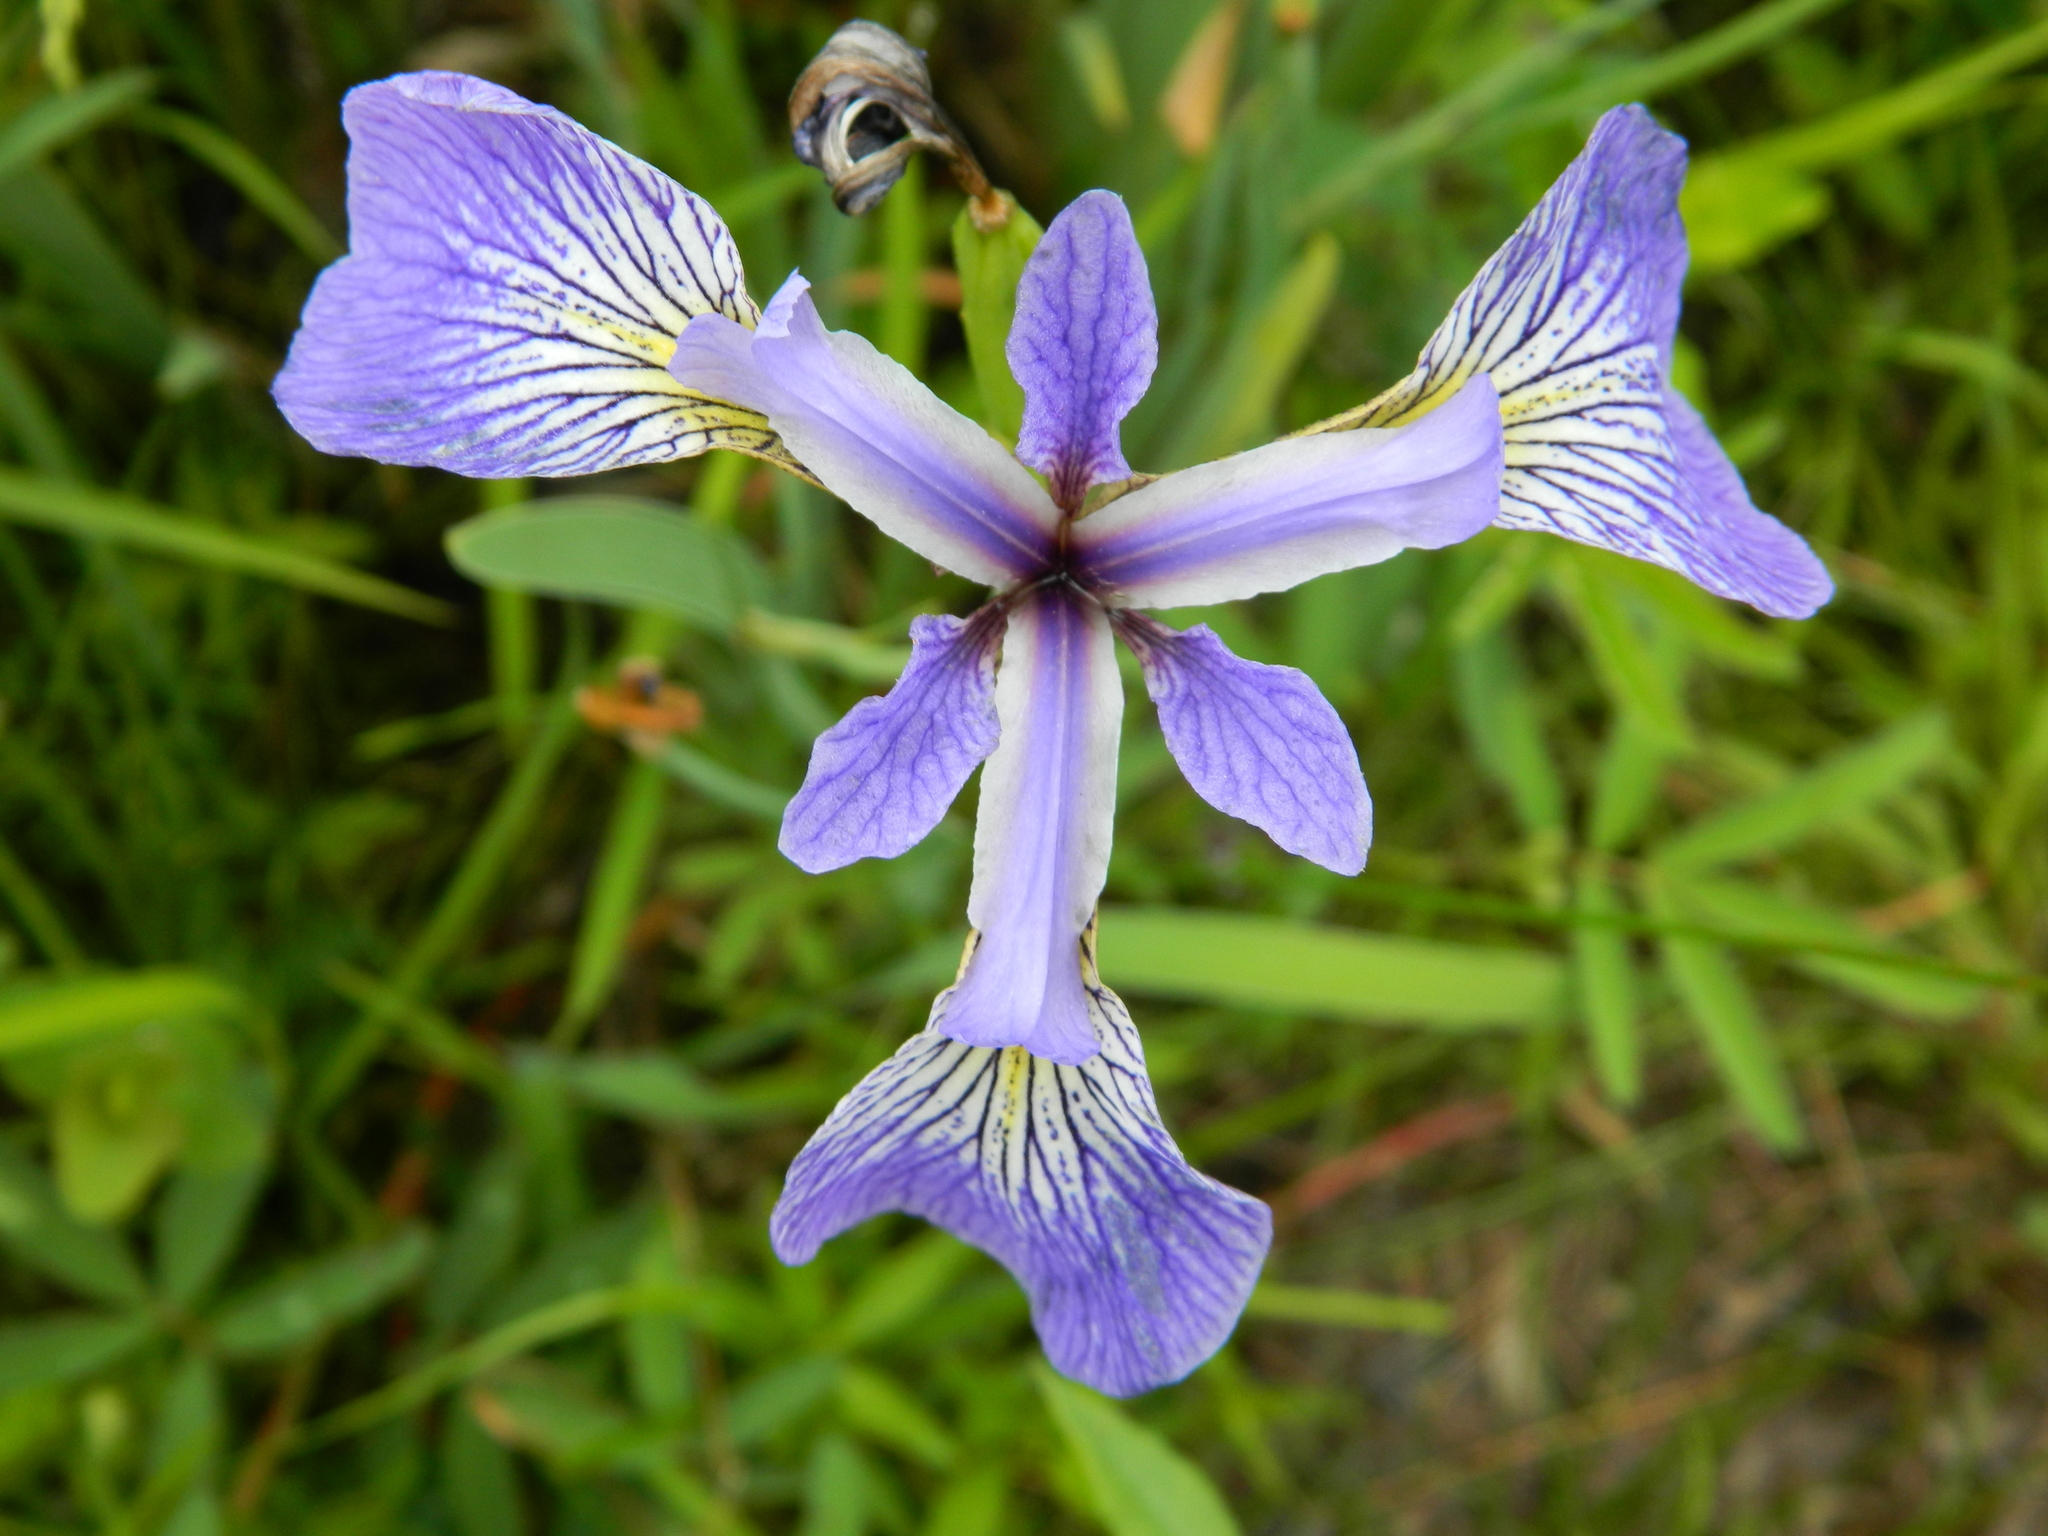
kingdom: Plantae
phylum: Tracheophyta
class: Liliopsida
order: Asparagales
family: Iridaceae
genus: Iris
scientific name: Iris versicolor
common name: Purple iris
